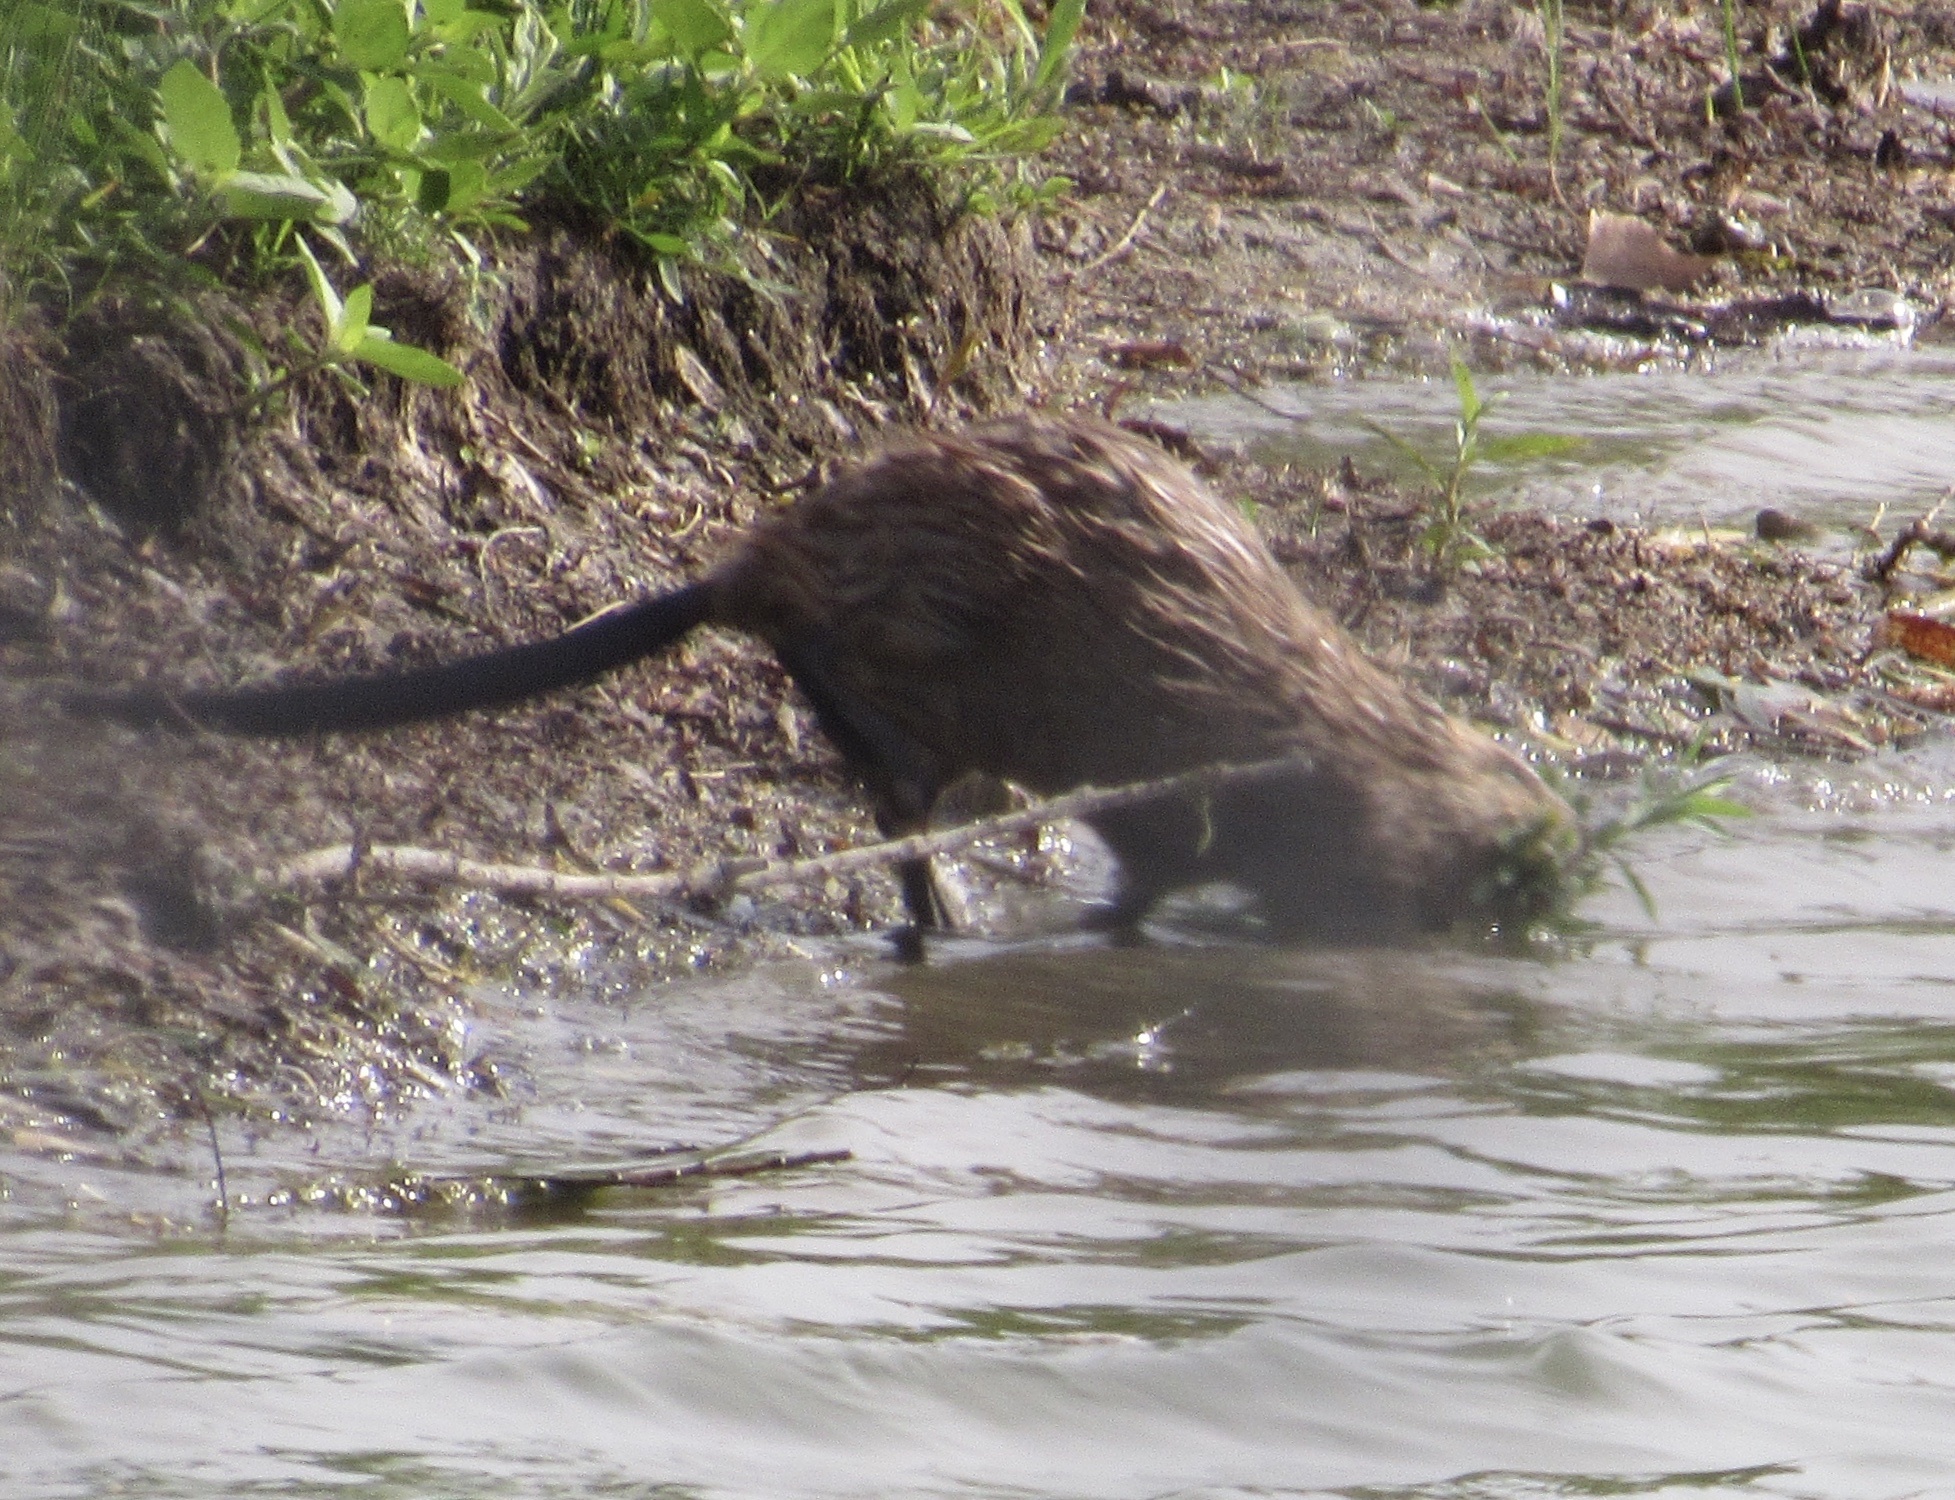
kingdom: Animalia
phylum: Chordata
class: Mammalia
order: Rodentia
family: Cricetidae
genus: Ondatra
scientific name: Ondatra zibethicus
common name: Muskrat
